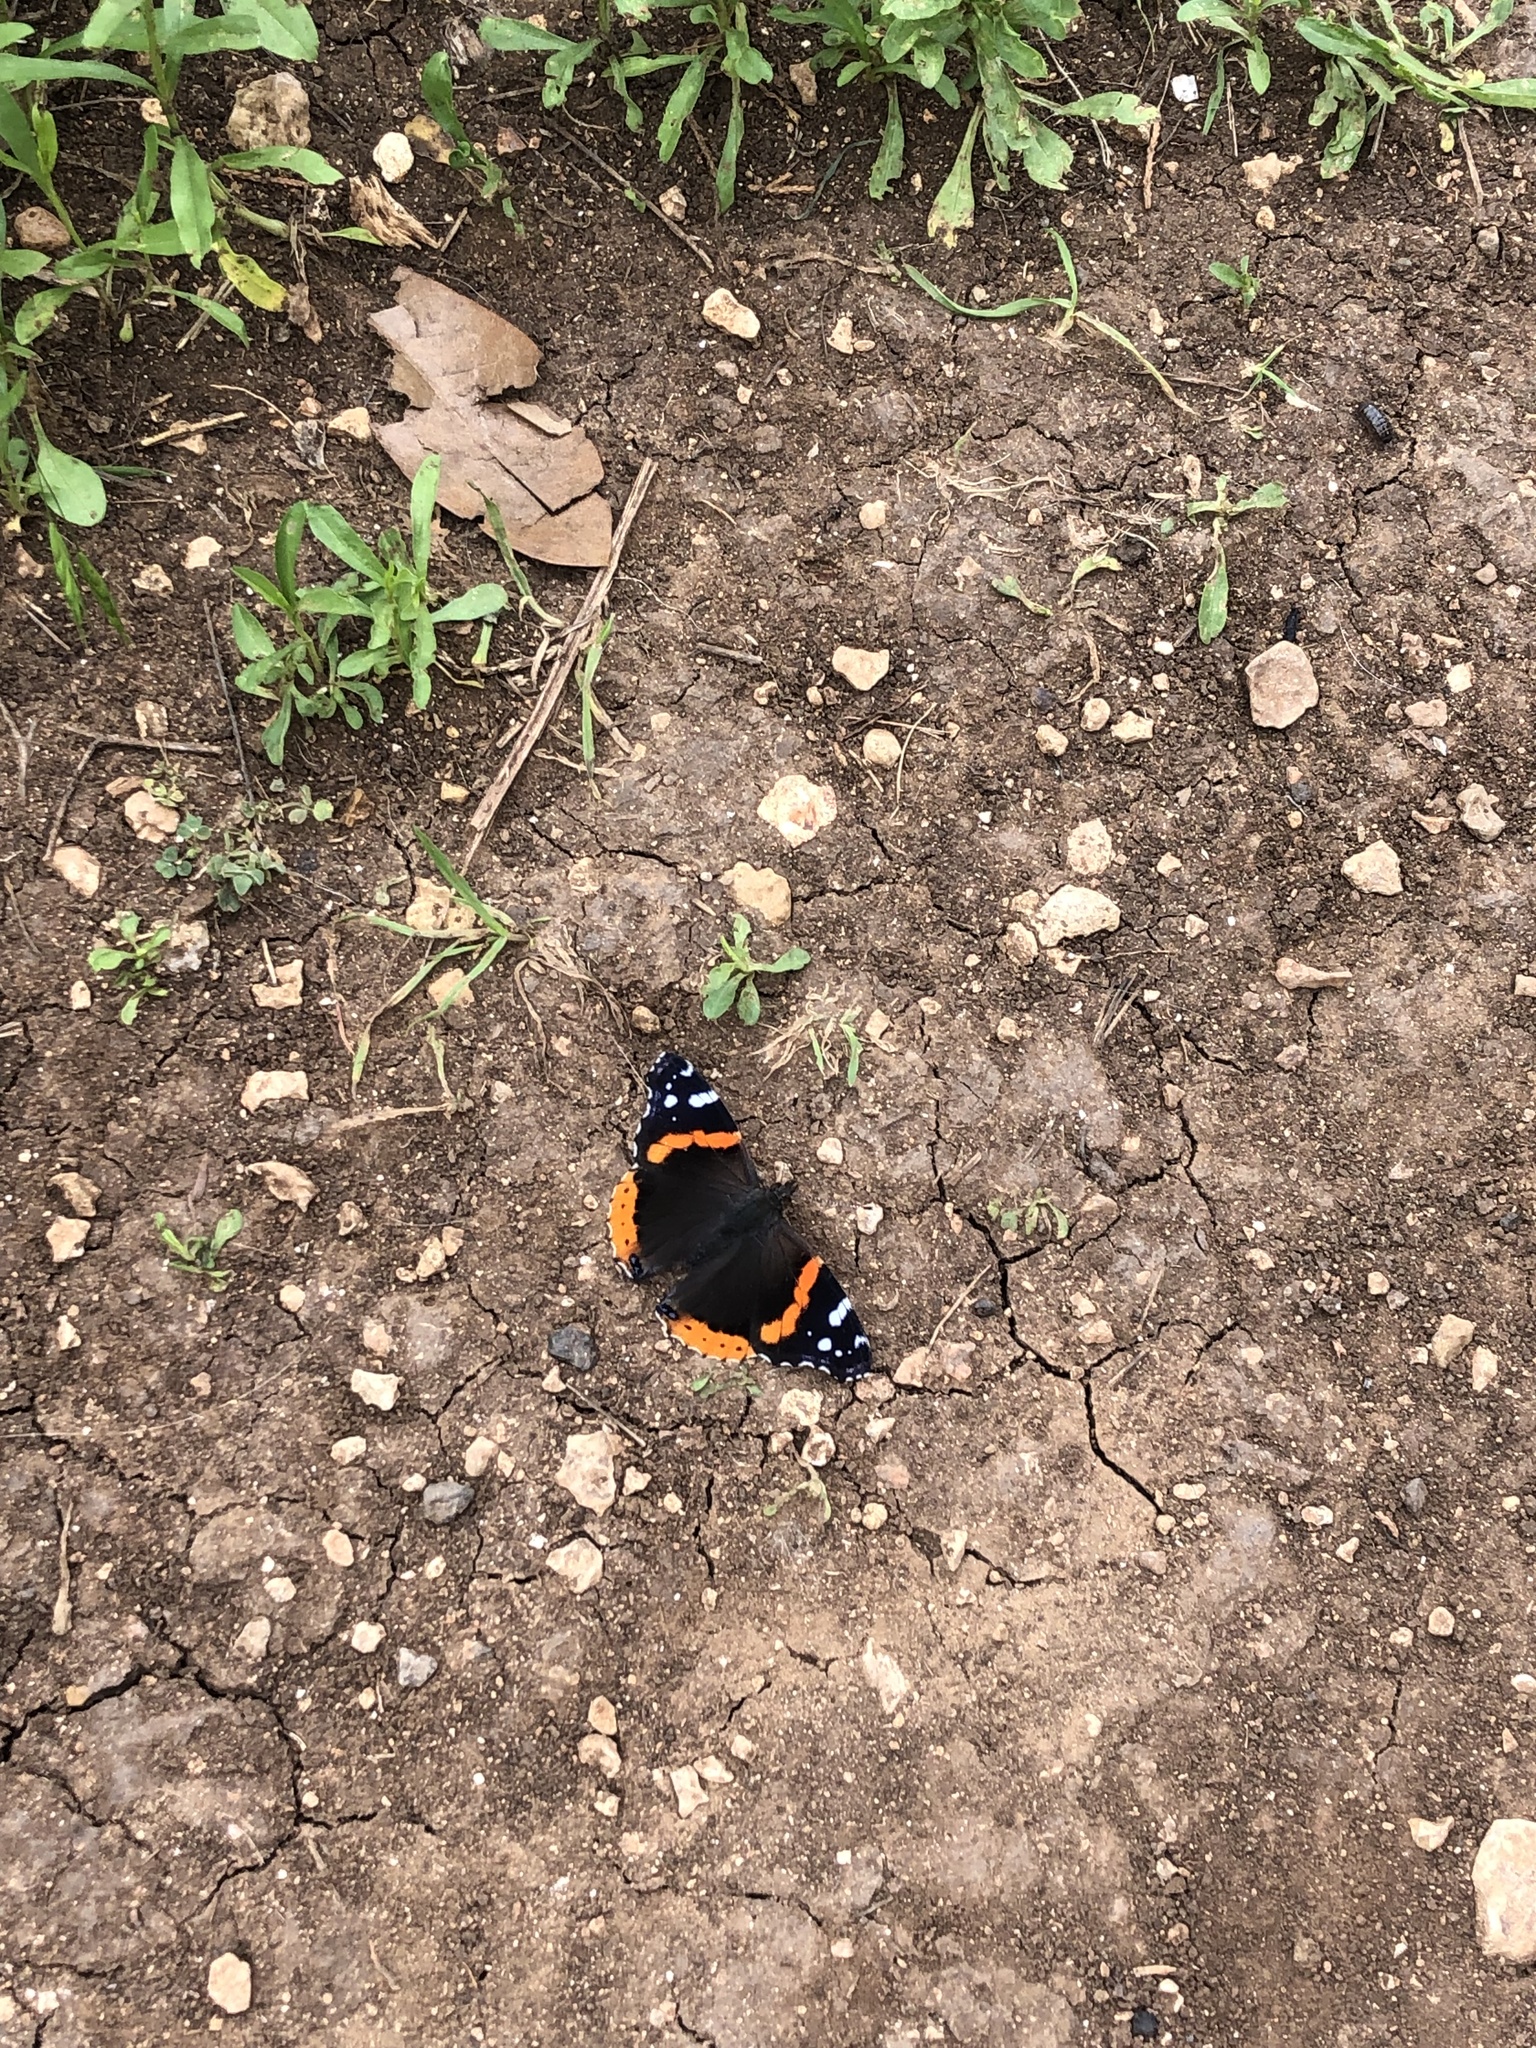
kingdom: Animalia
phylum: Arthropoda
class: Insecta
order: Lepidoptera
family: Nymphalidae
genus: Vanessa
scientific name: Vanessa atalanta
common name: Red admiral
